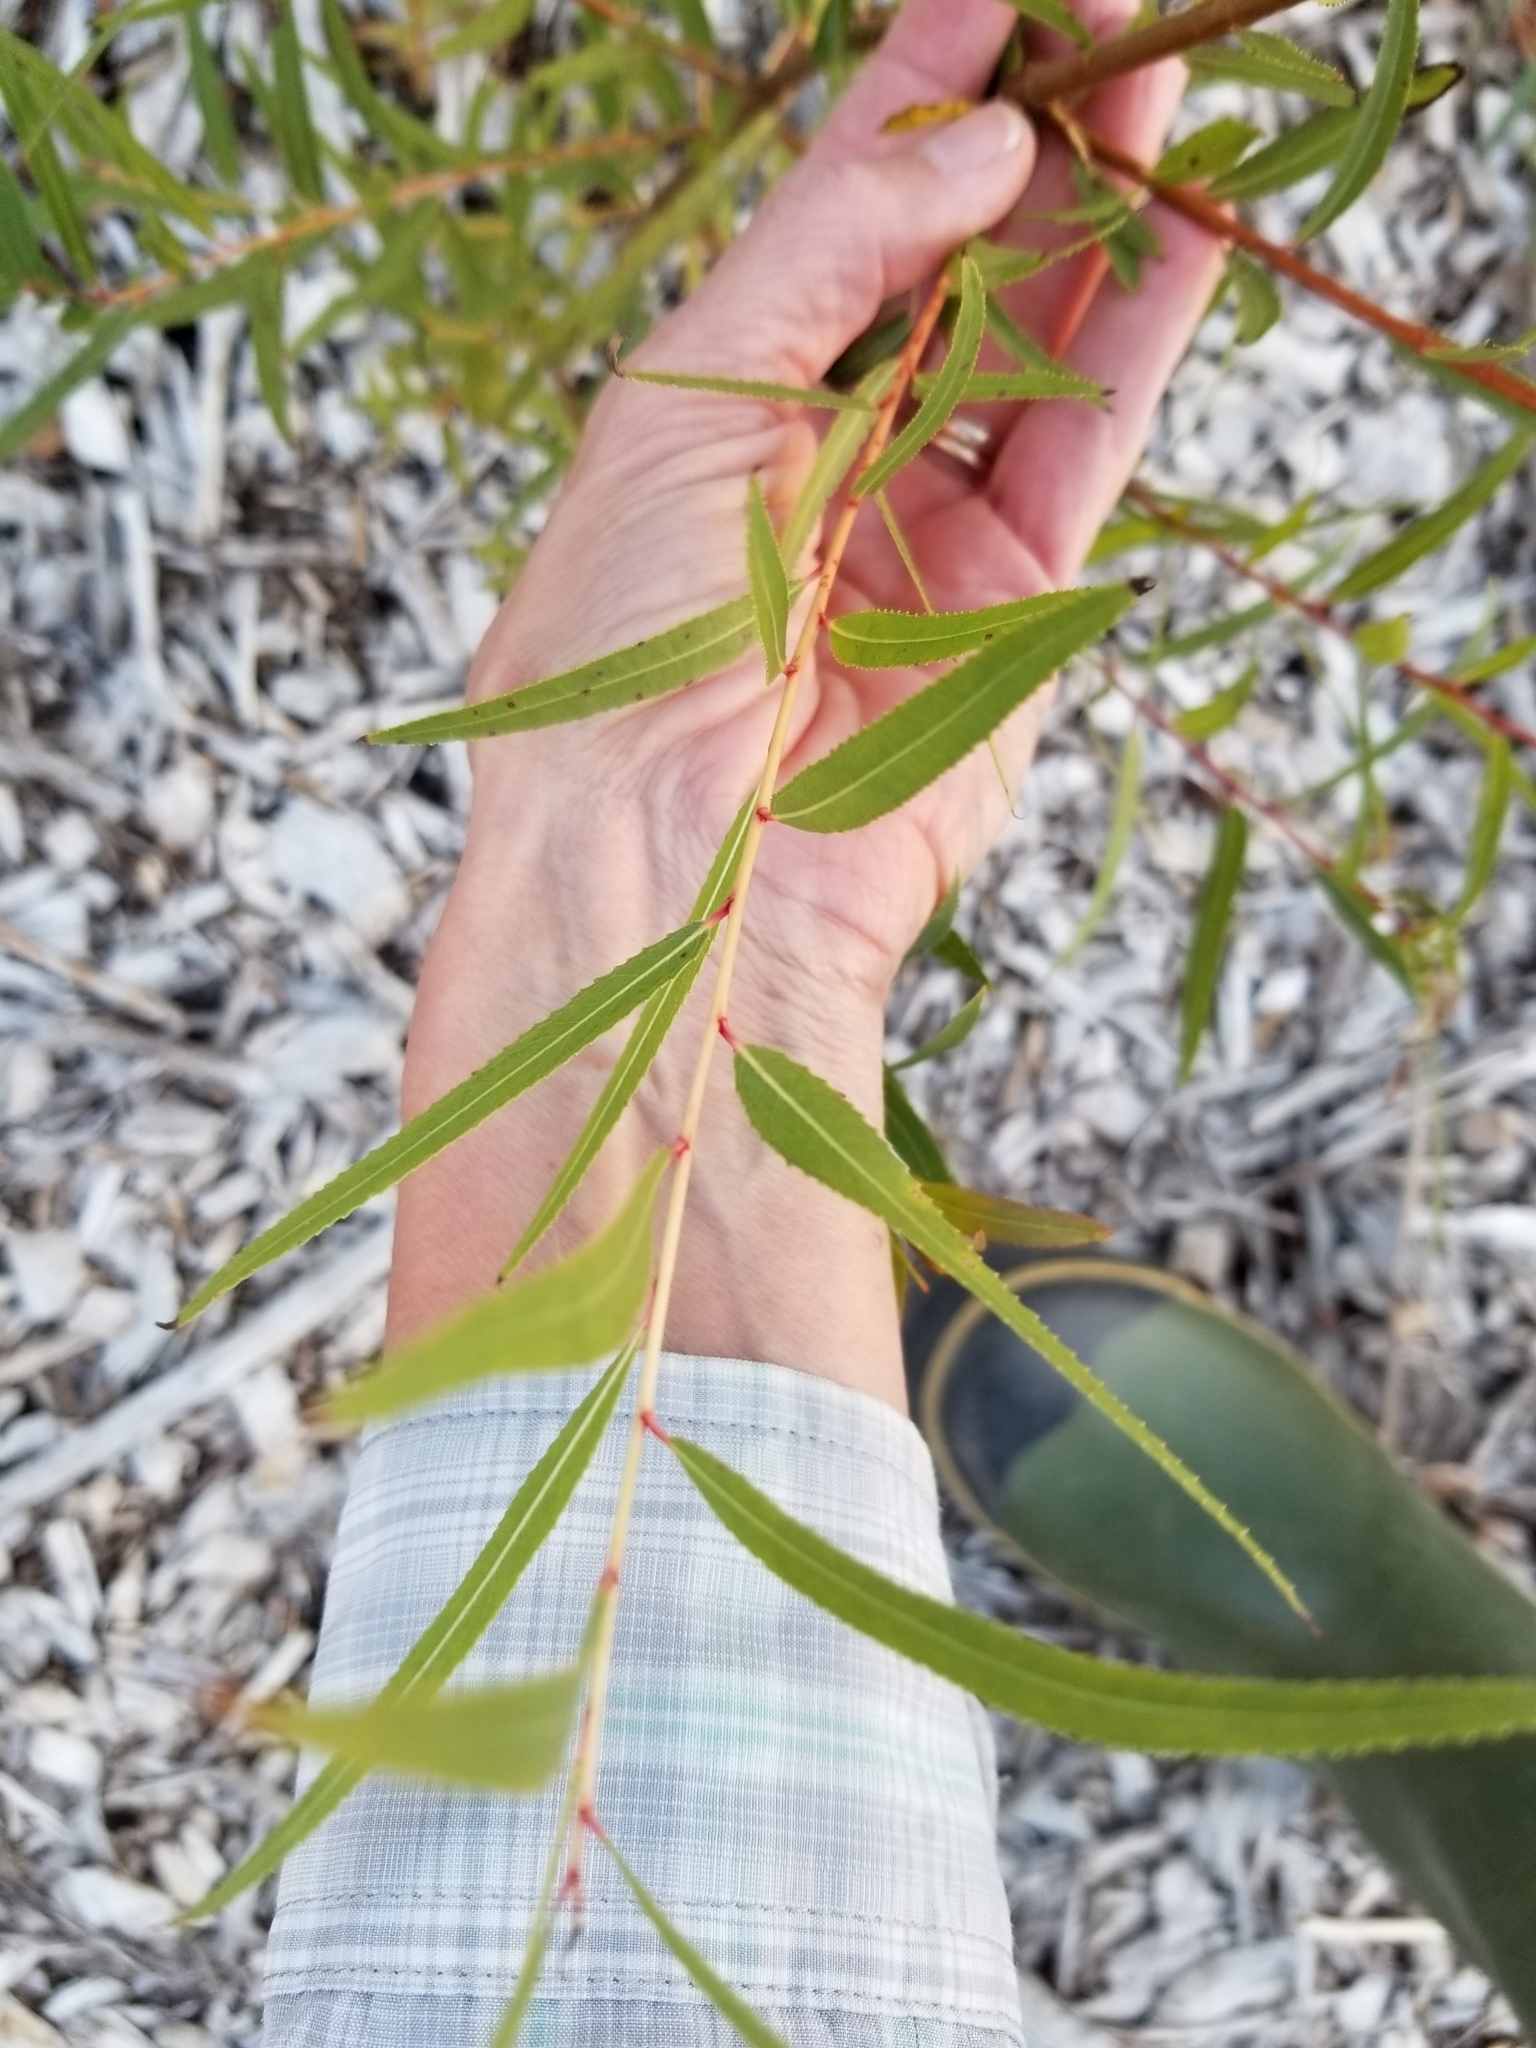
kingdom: Plantae
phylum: Tracheophyta
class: Magnoliopsida
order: Malpighiales
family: Salicaceae
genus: Salix
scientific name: Salix nigra
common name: Black willow
